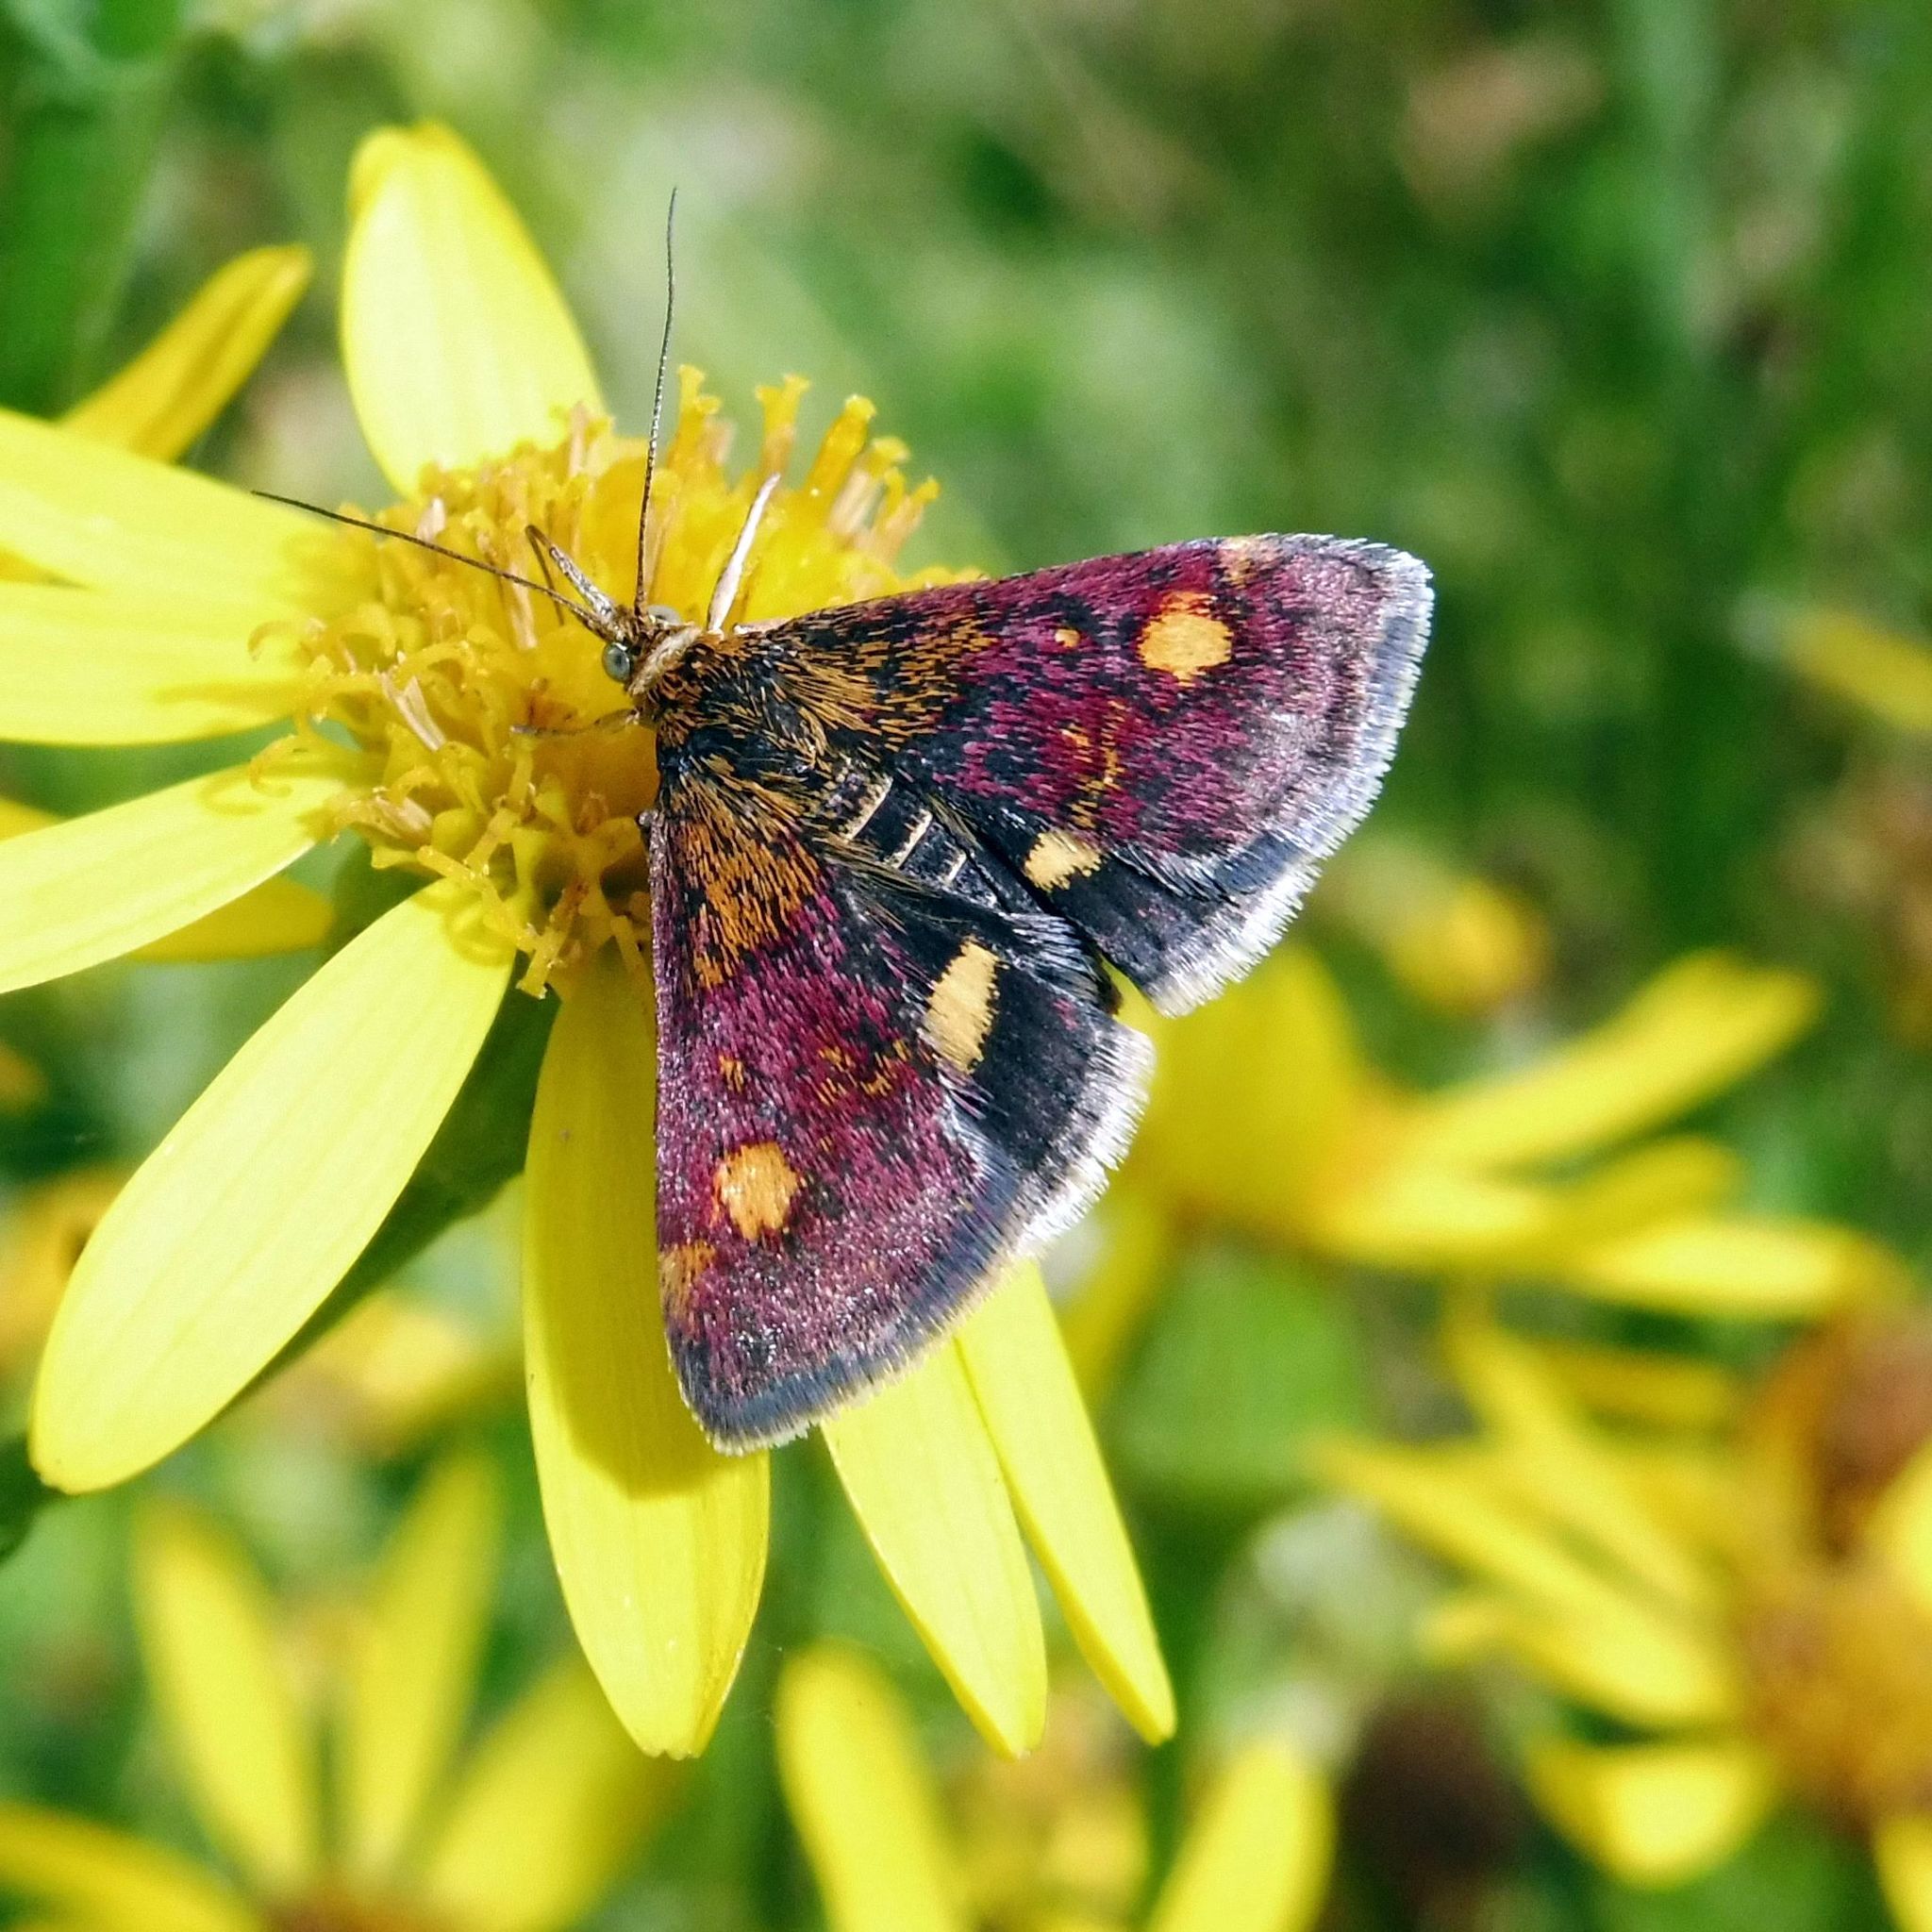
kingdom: Animalia
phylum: Arthropoda
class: Insecta
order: Lepidoptera
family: Crambidae
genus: Pyrausta
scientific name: Pyrausta aurata
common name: Small purple & gold
